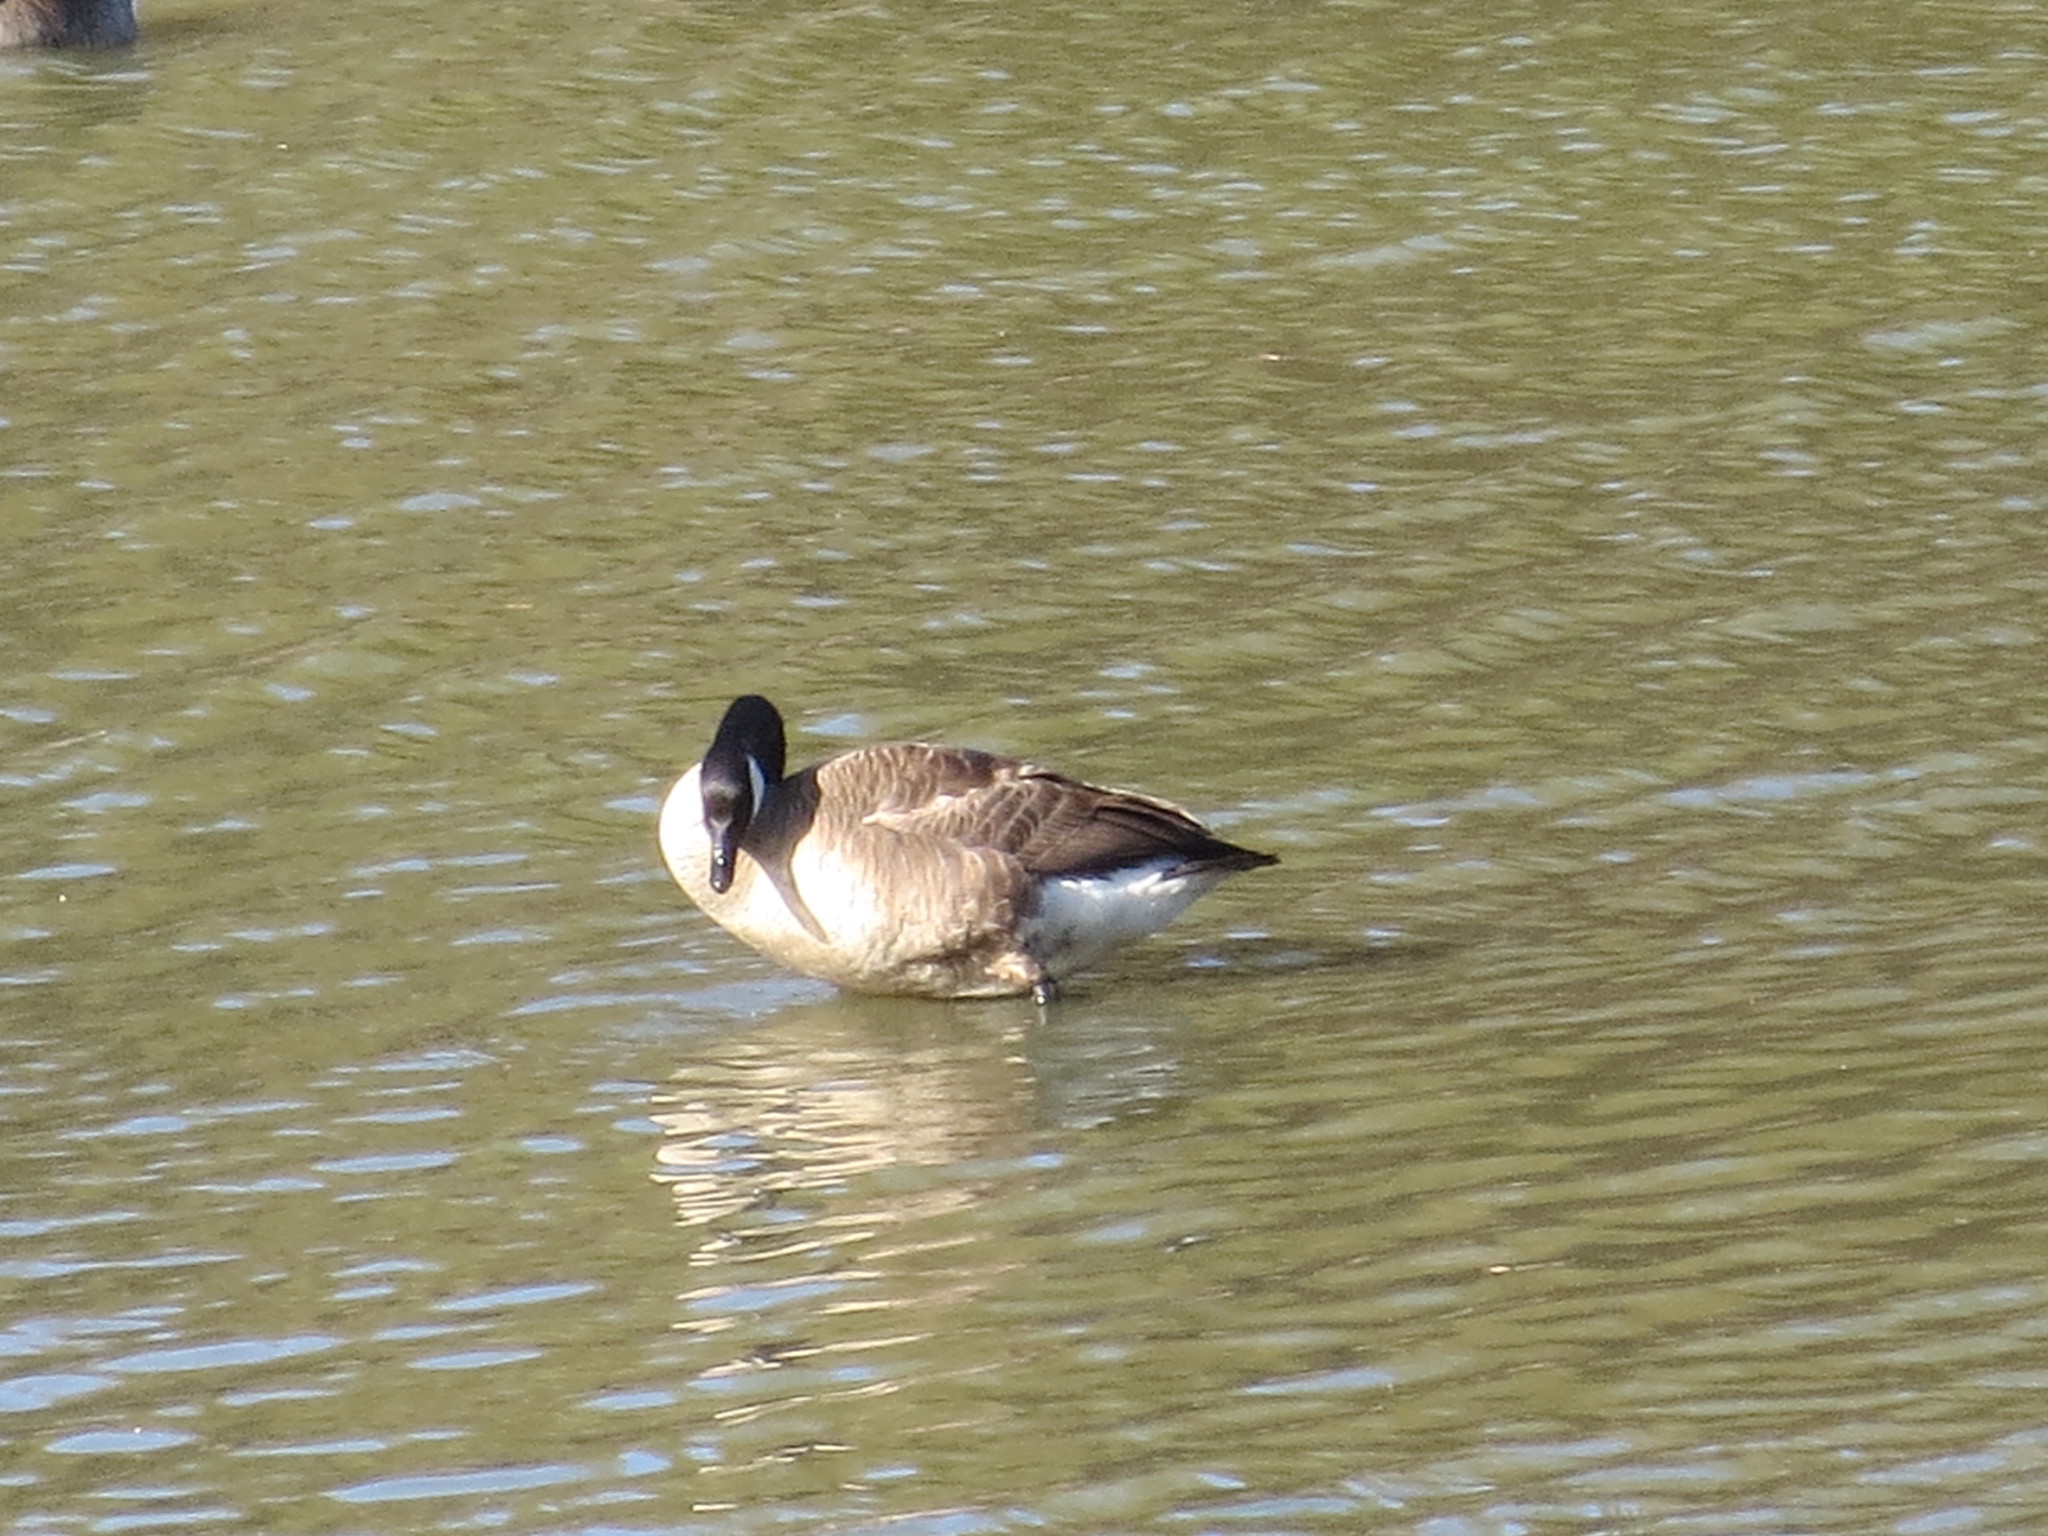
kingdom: Animalia
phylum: Chordata
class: Aves
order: Anseriformes
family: Anatidae
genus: Branta
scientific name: Branta canadensis
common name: Canada goose
